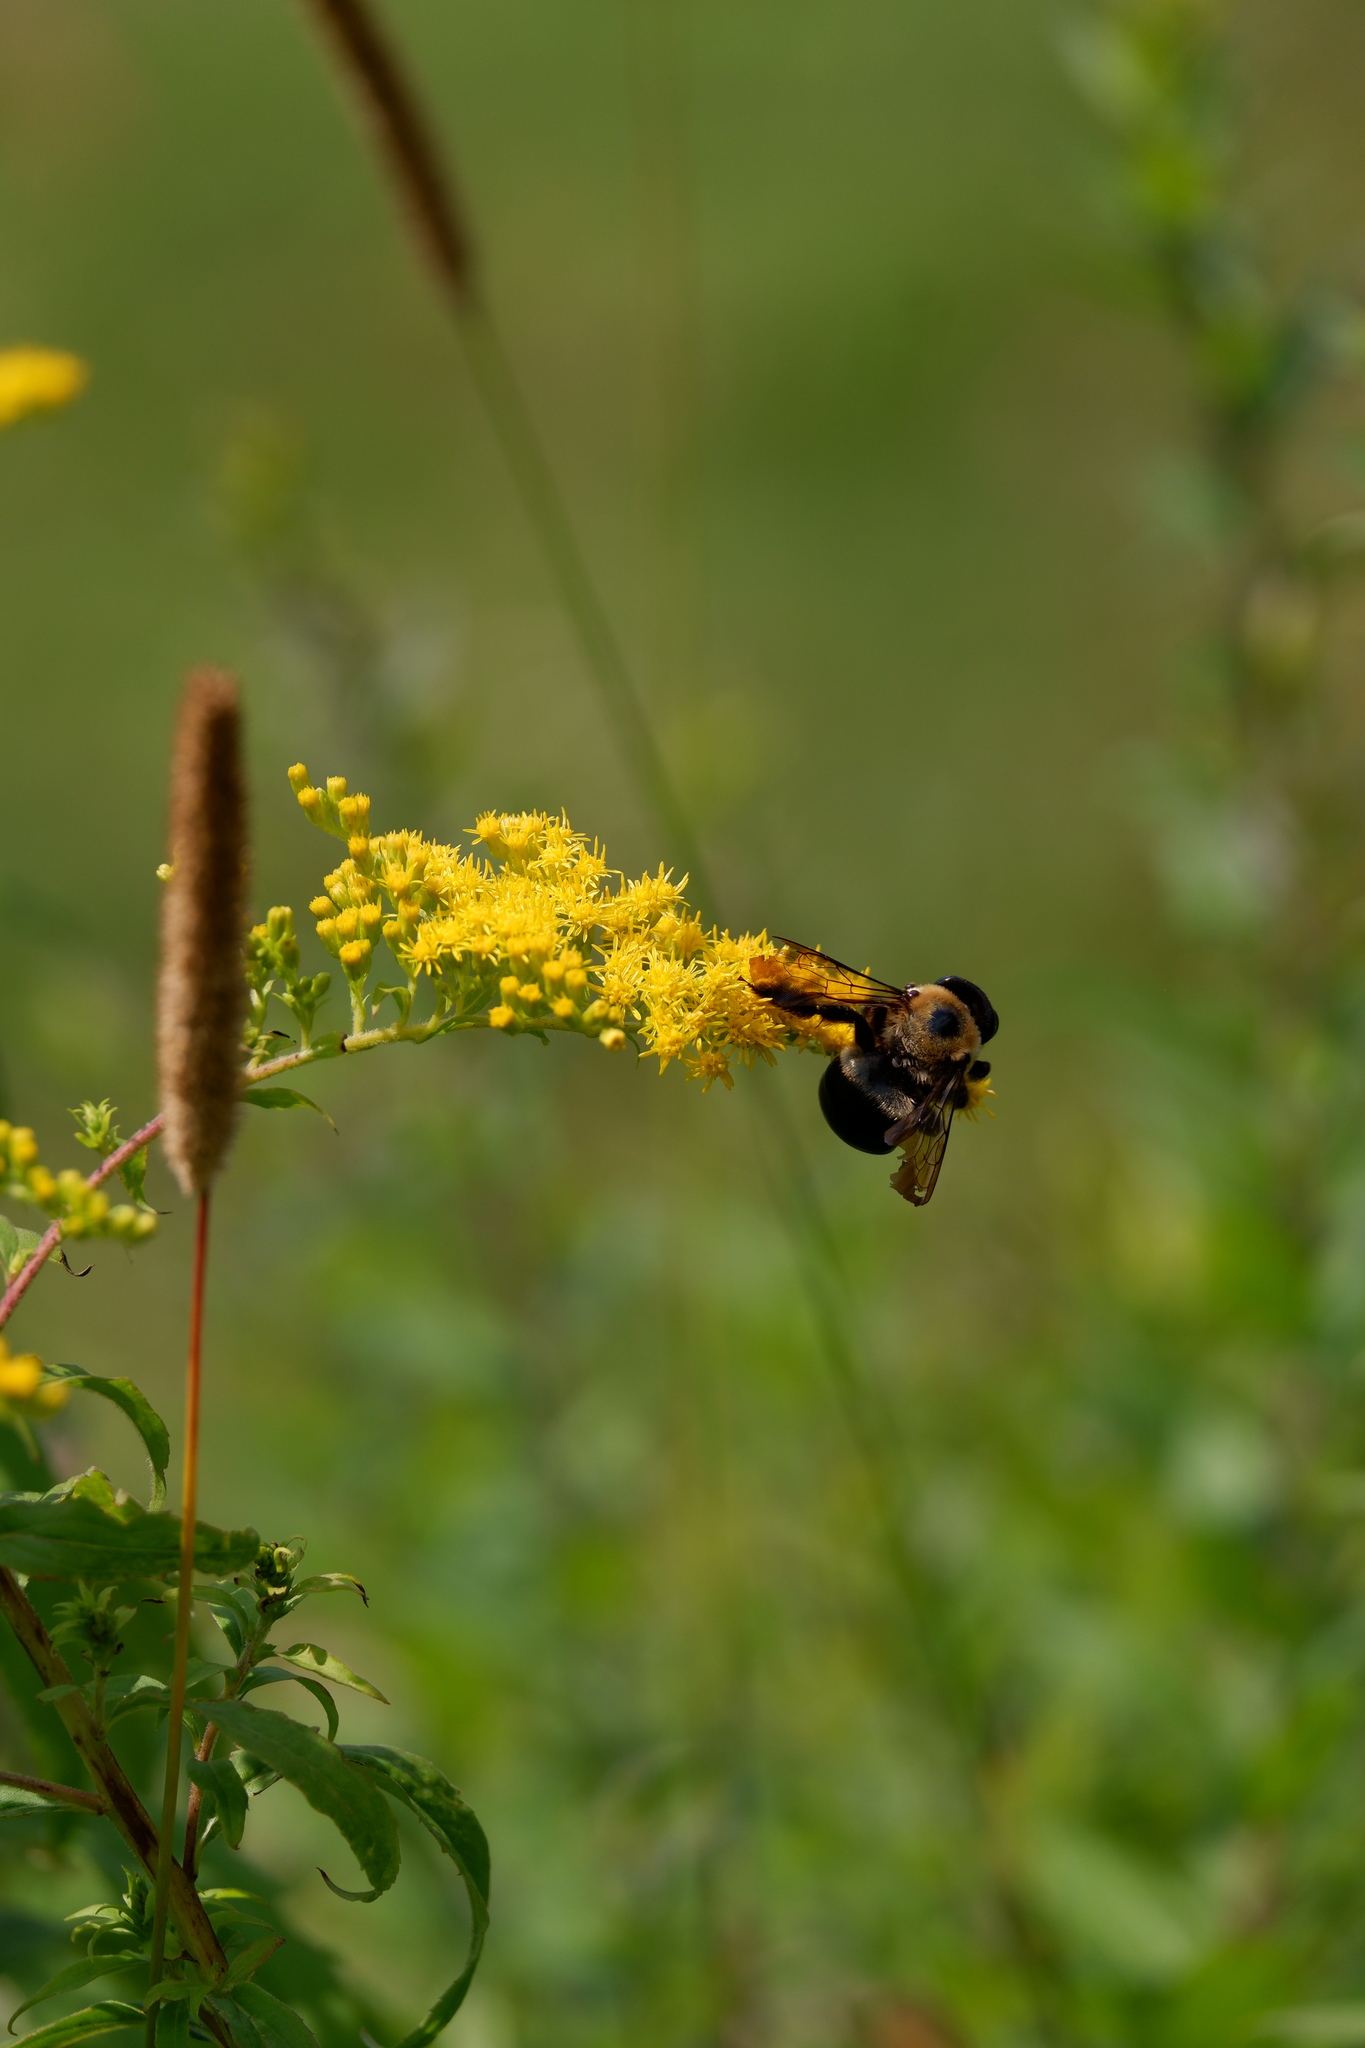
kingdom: Animalia
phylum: Arthropoda
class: Insecta
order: Hymenoptera
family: Apidae
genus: Xylocopa
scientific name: Xylocopa virginica
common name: Carpenter bee
